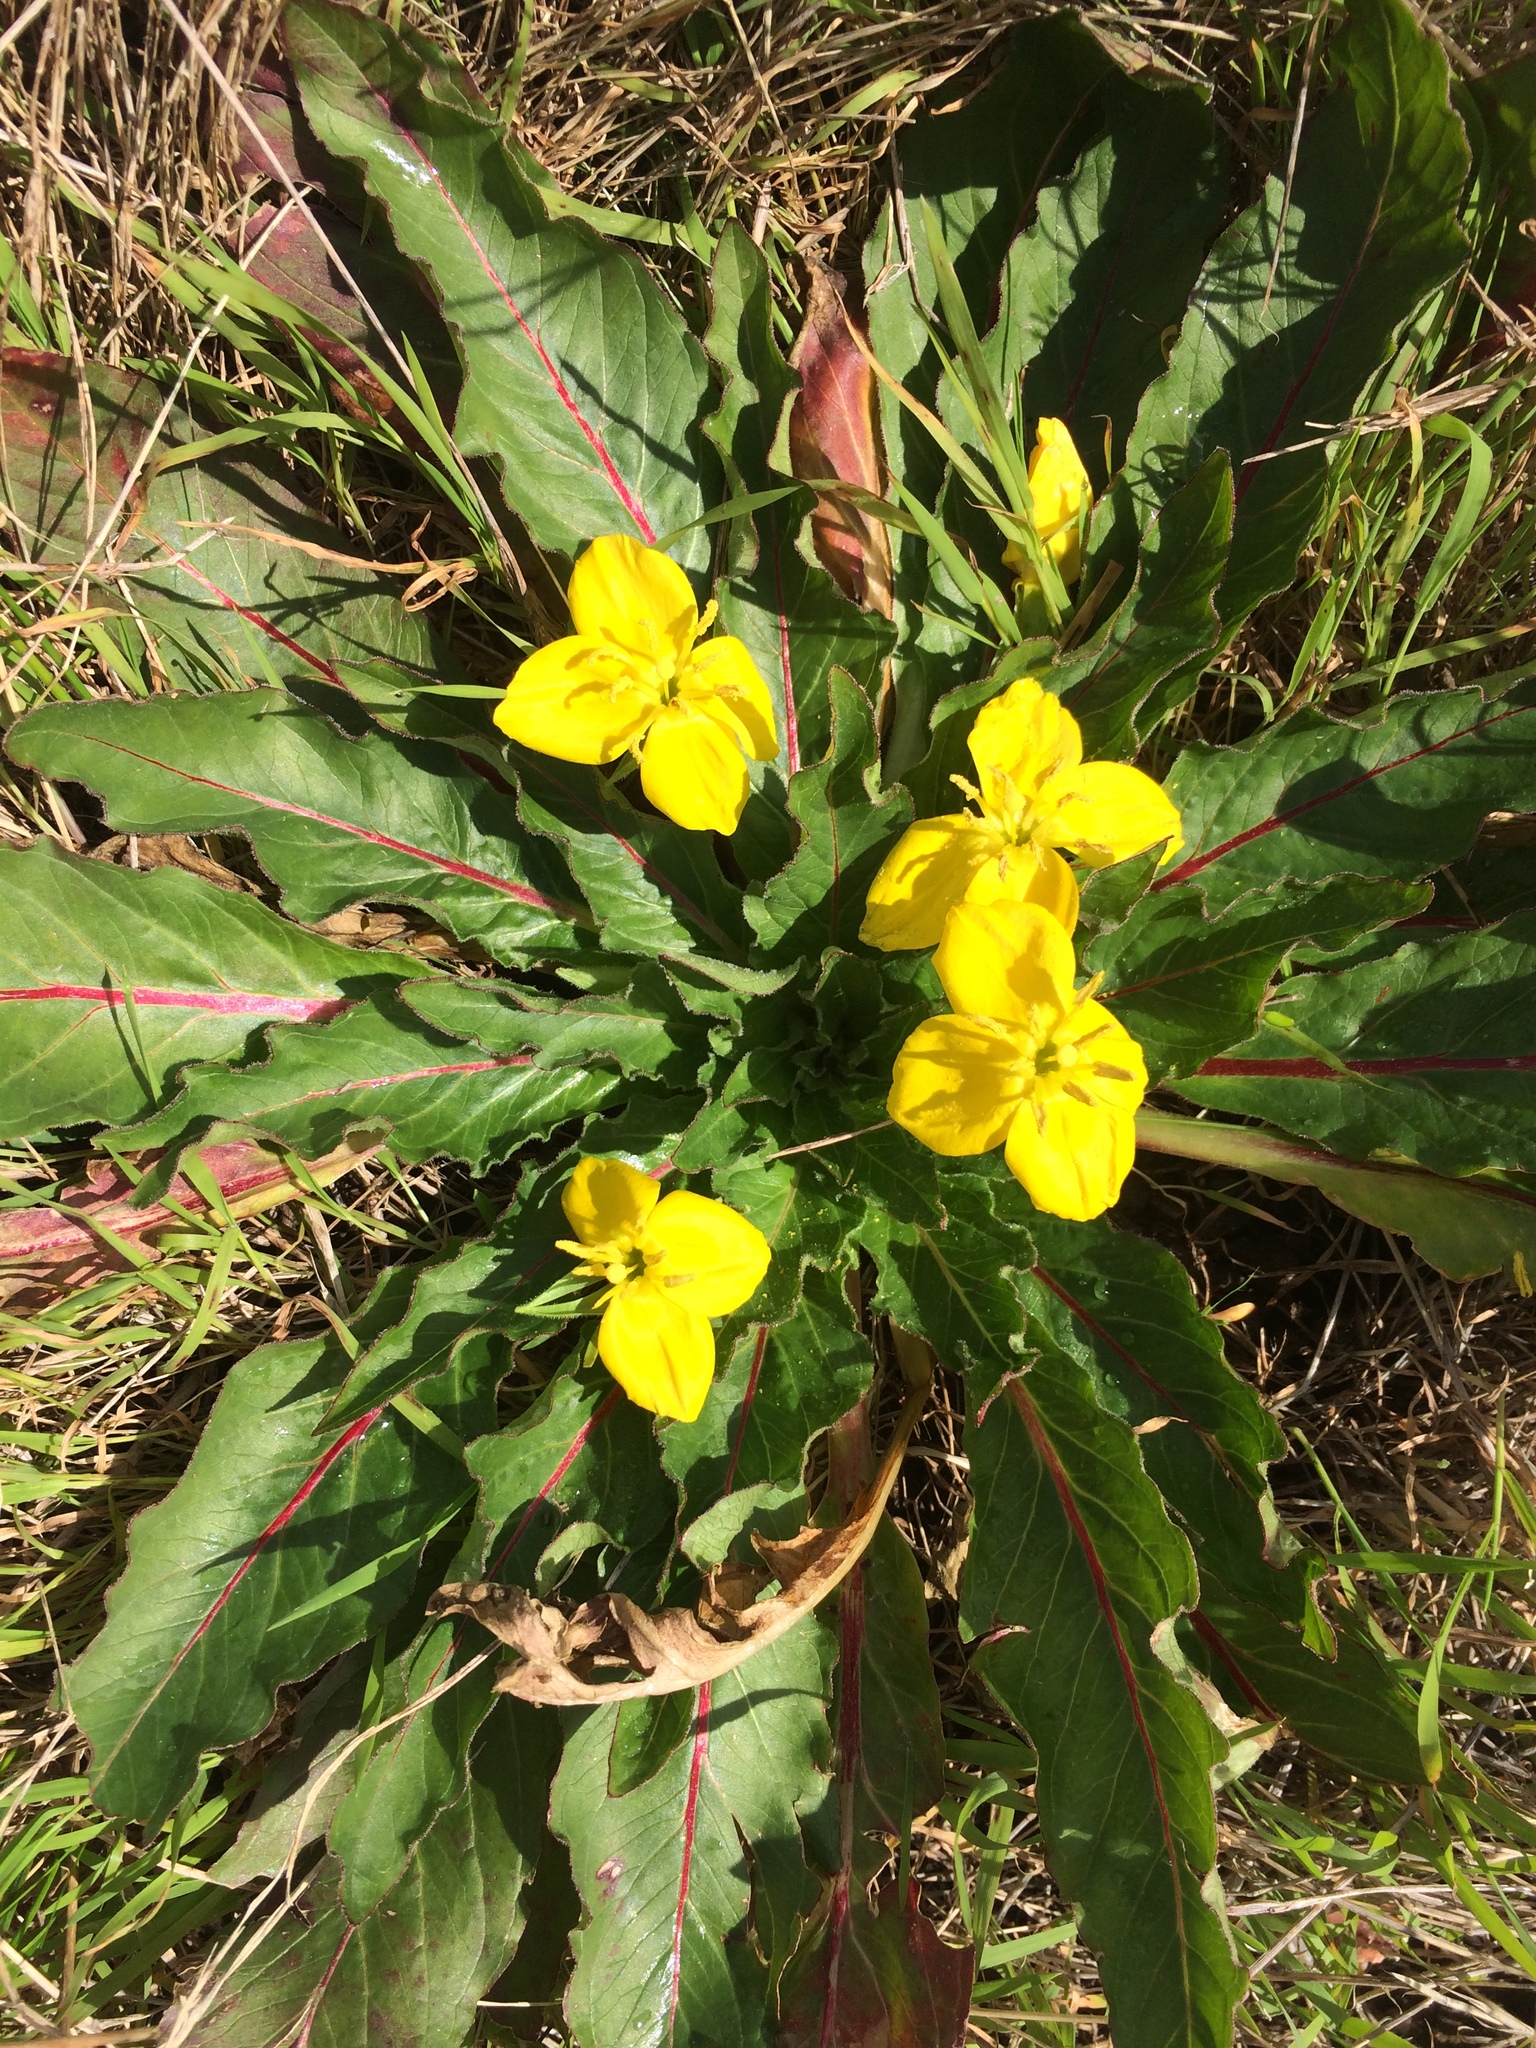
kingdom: Plantae
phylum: Tracheophyta
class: Magnoliopsida
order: Myrtales
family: Onagraceae
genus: Taraxia
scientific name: Taraxia ovata
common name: Goldeneggs
